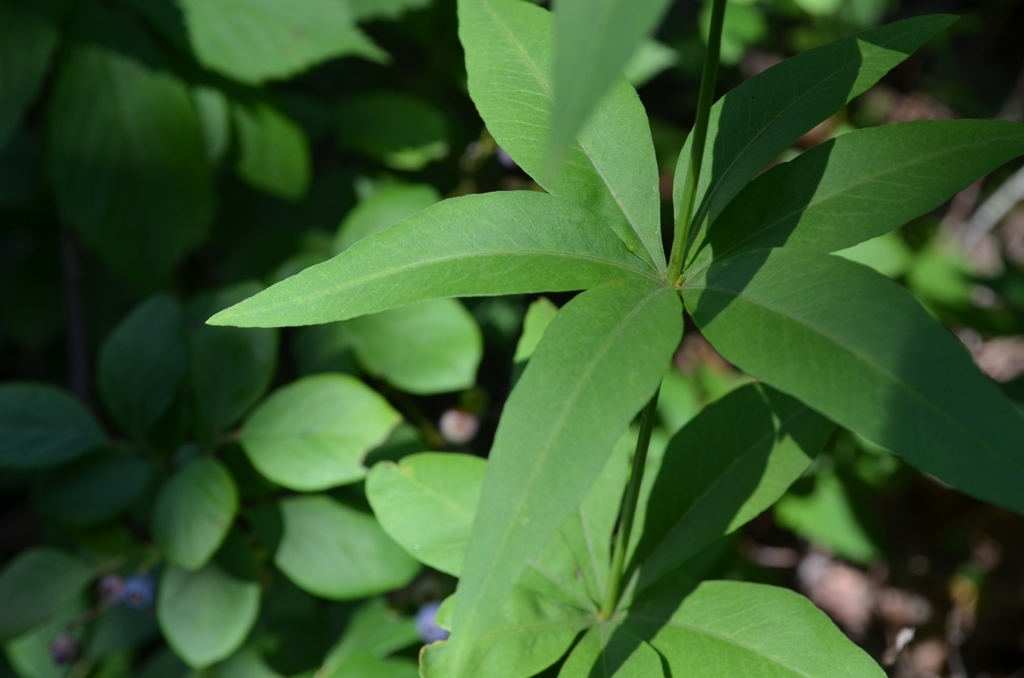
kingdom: Plantae
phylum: Tracheophyta
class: Magnoliopsida
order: Asterales
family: Asteraceae
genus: Coreopsis
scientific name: Coreopsis major
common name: Forest tickseed
